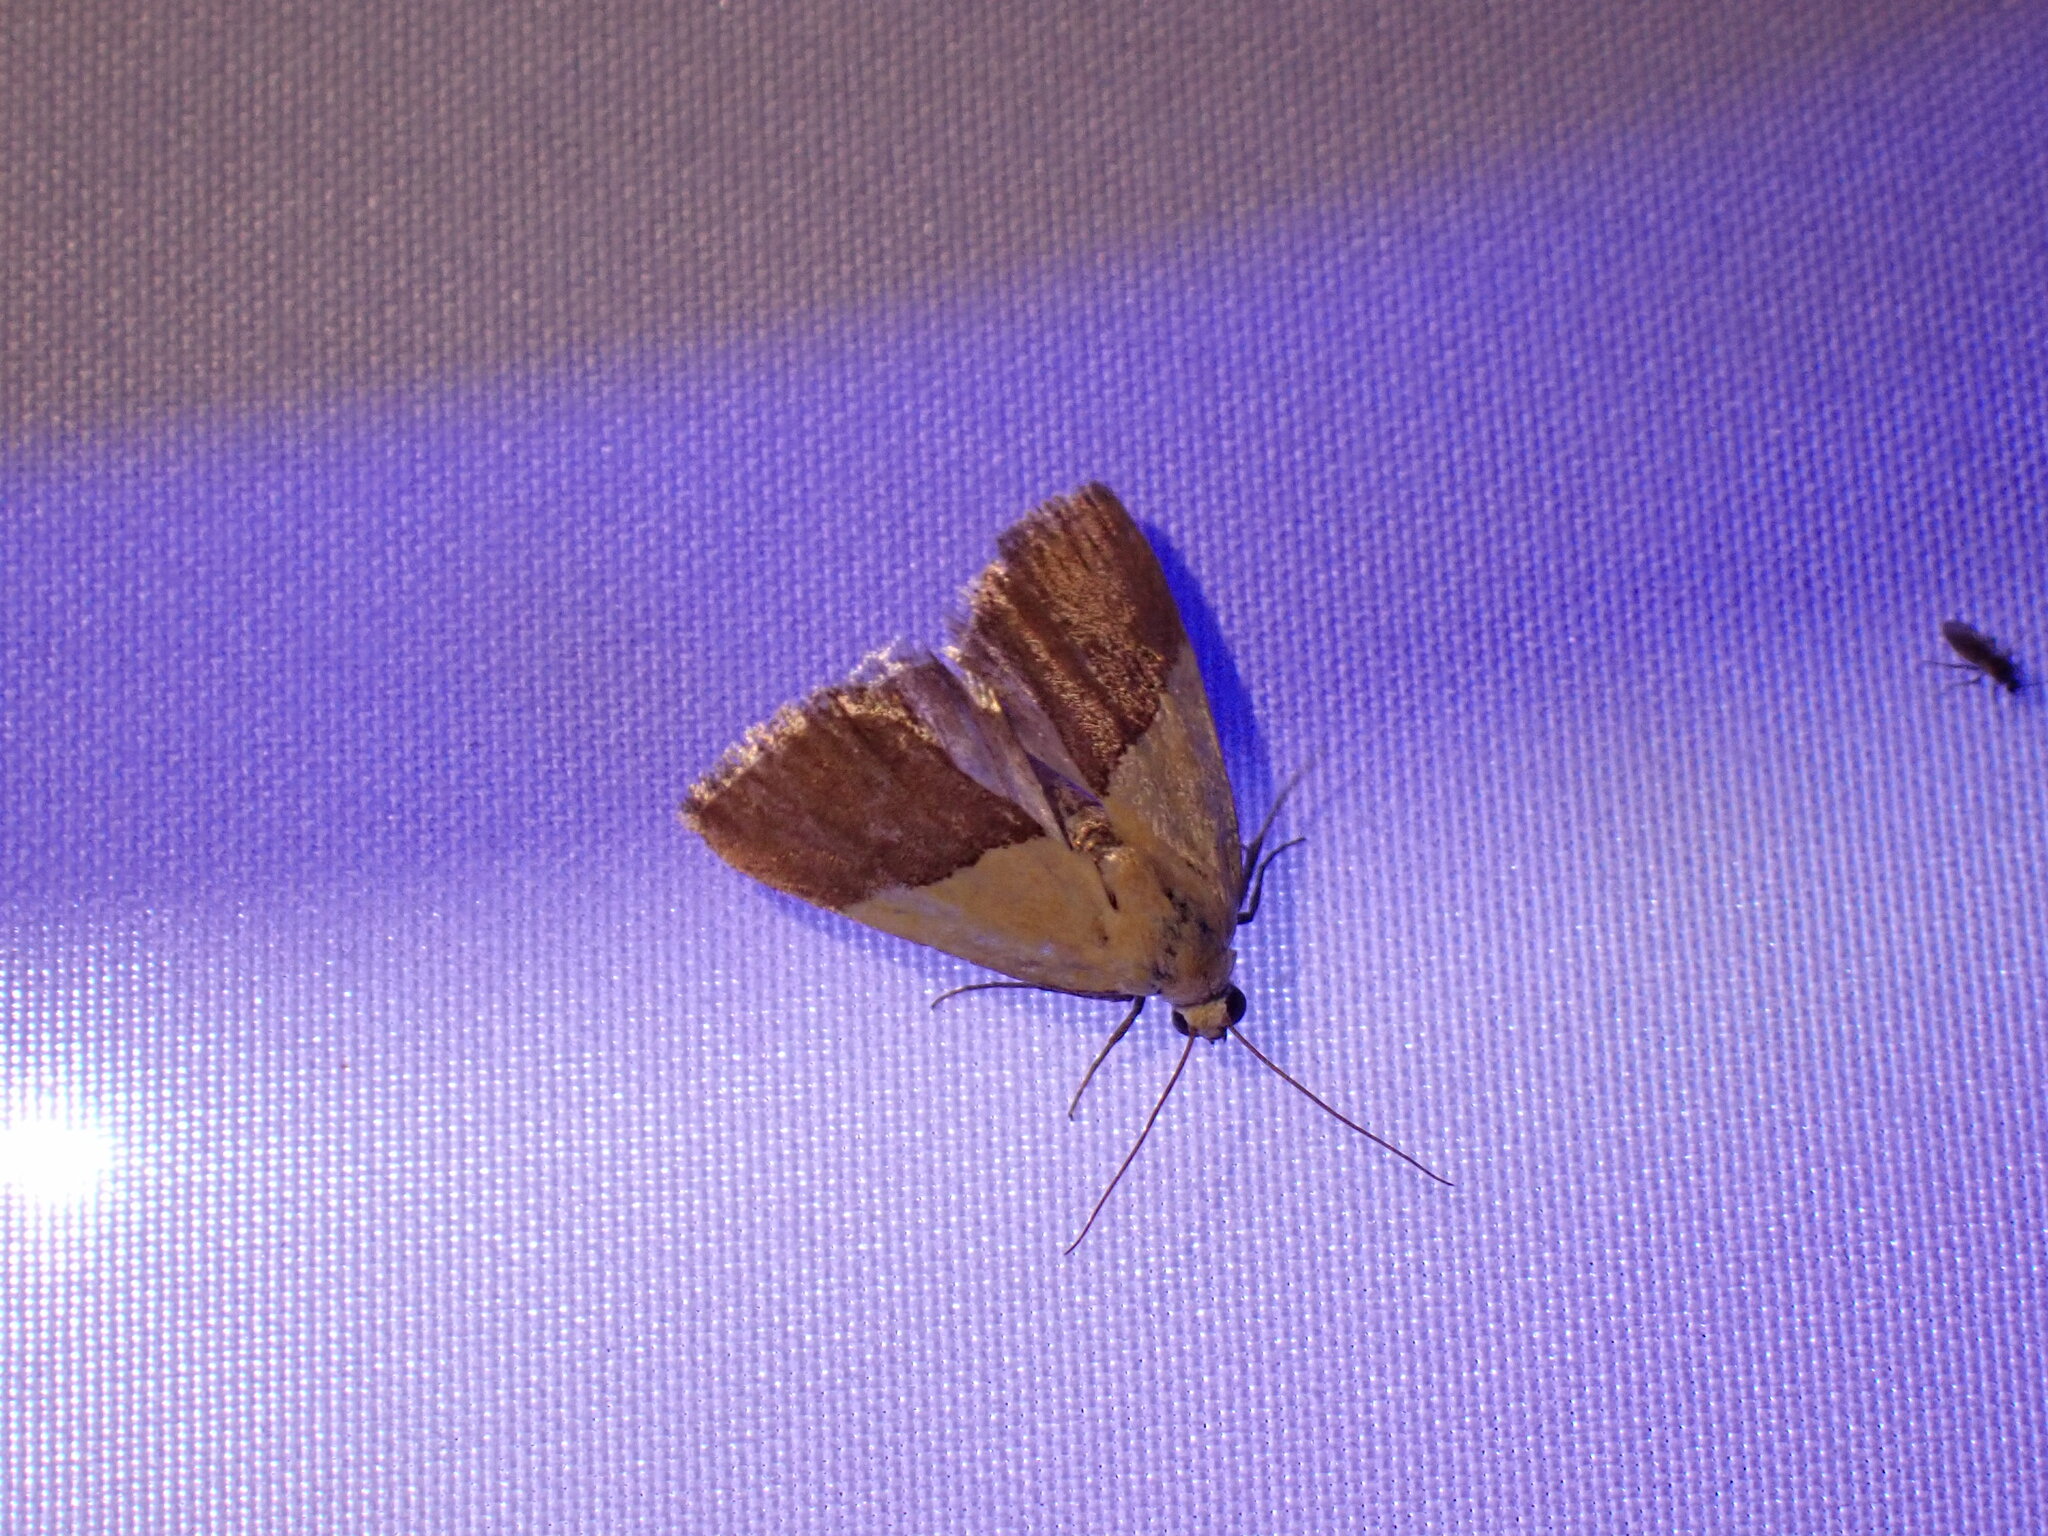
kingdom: Animalia
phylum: Arthropoda
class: Insecta
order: Lepidoptera
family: Noctuidae
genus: Acontia
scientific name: Acontia semiflava
